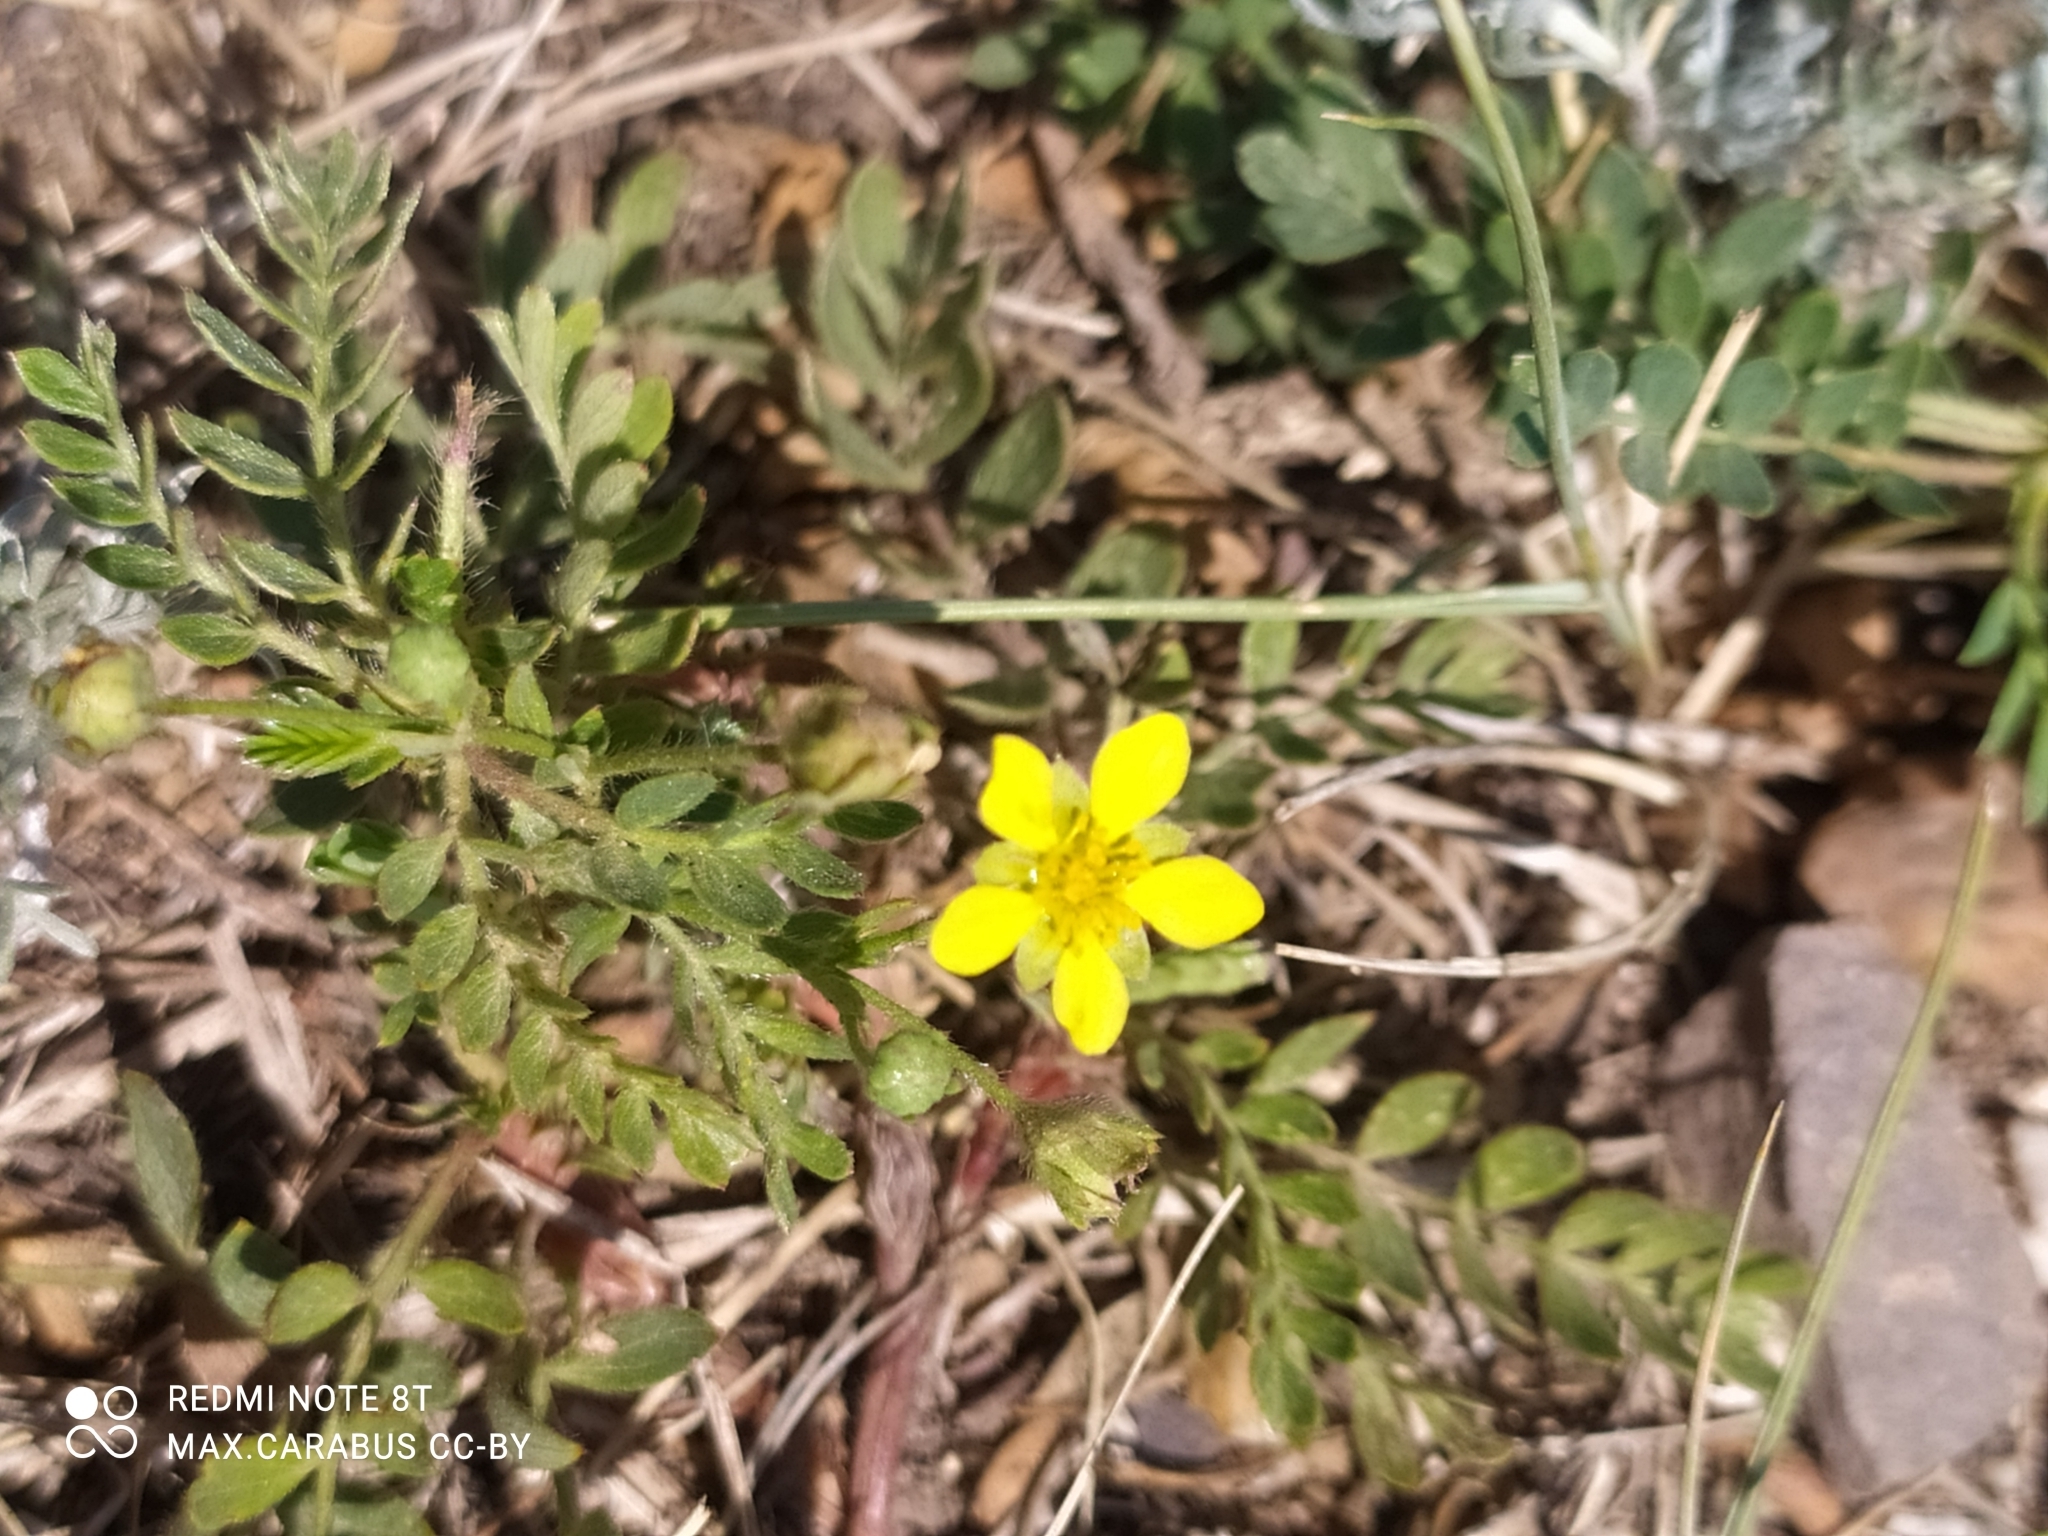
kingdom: Plantae
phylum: Tracheophyta
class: Magnoliopsida
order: Rosales
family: Rosaceae
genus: Sibbaldianthe
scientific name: Sibbaldianthe bifurca
